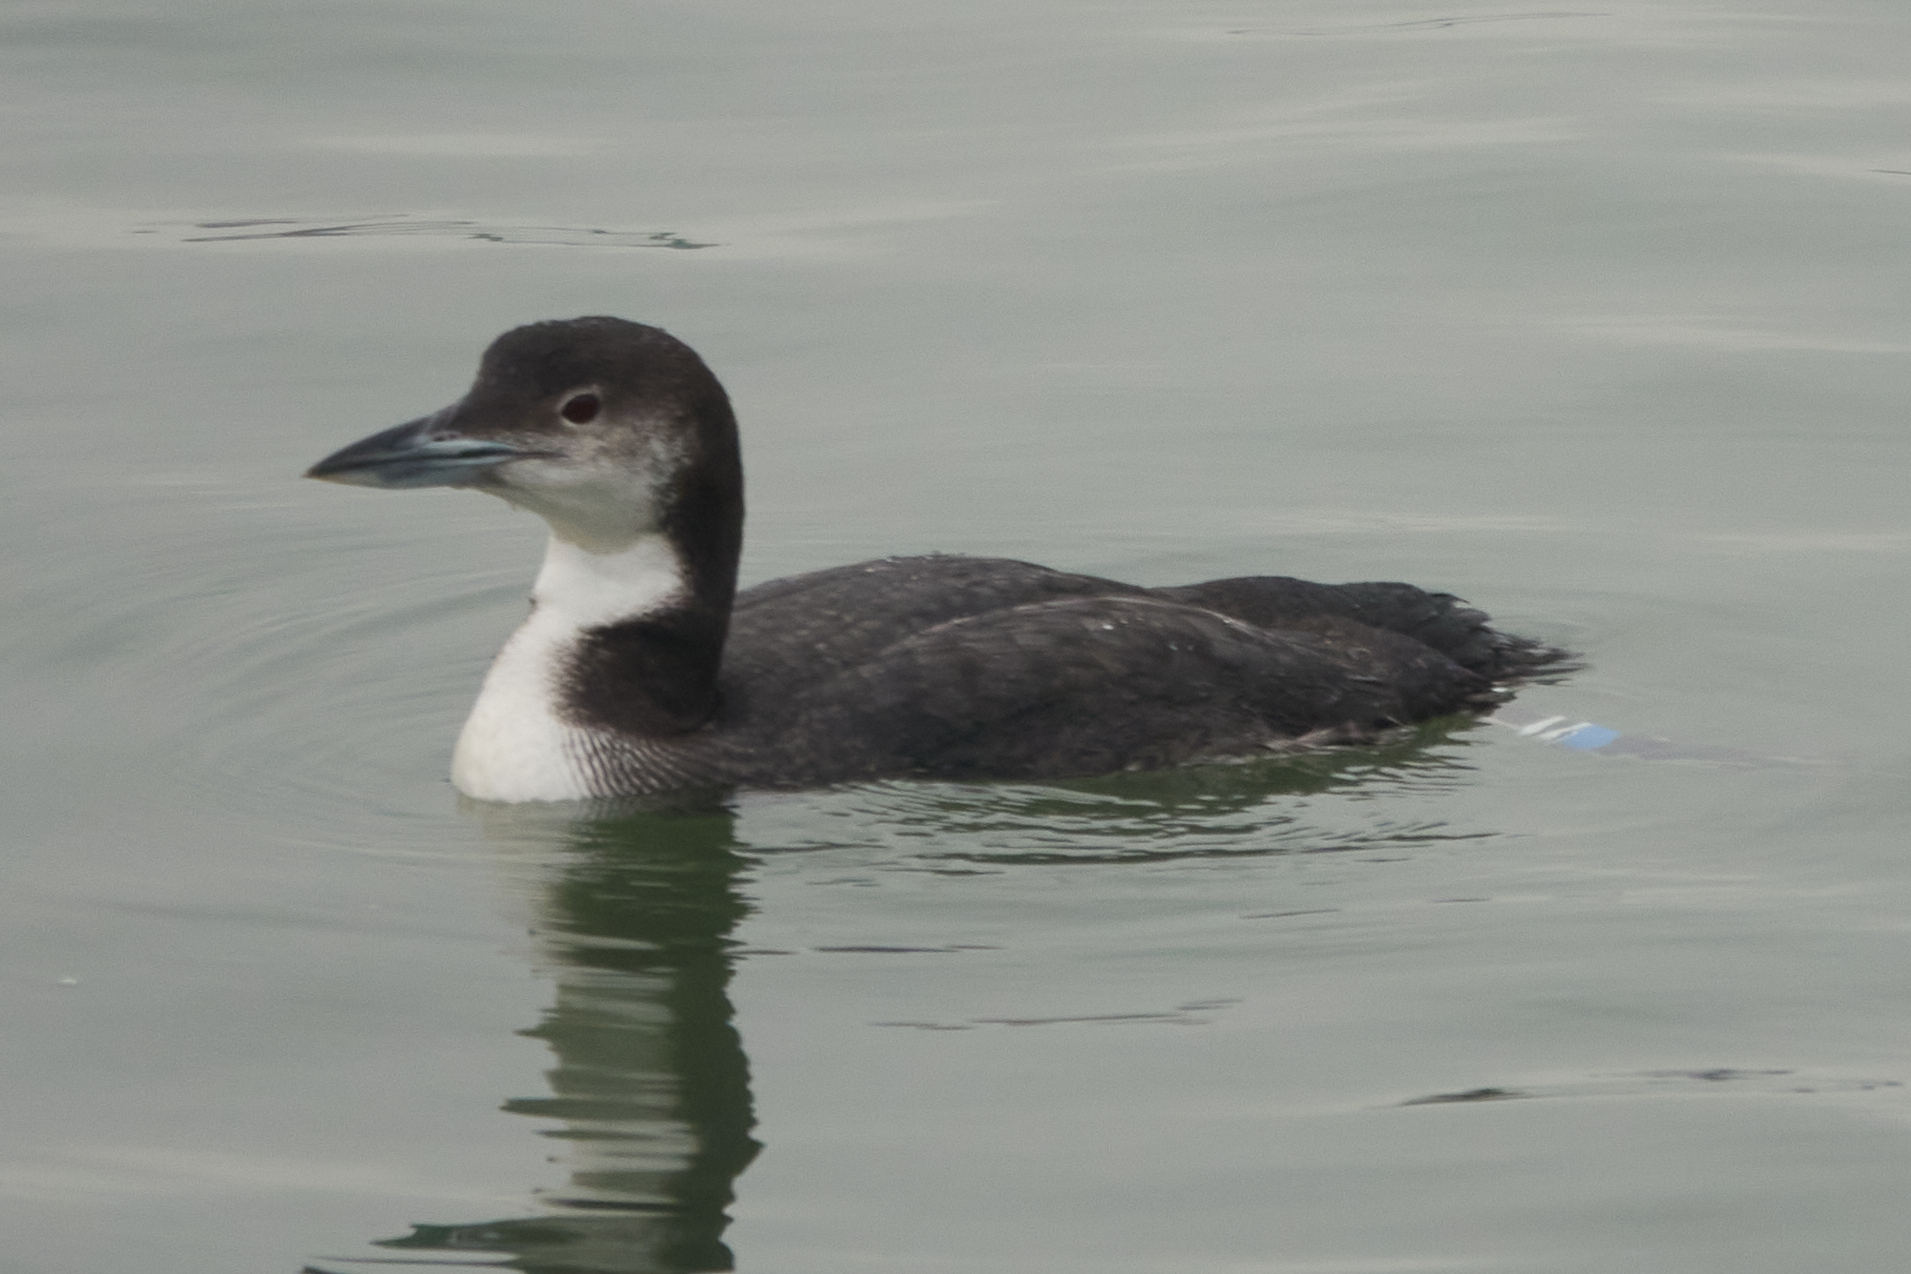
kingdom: Animalia
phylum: Chordata
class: Aves
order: Gaviiformes
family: Gaviidae
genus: Gavia
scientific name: Gavia immer
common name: Common loon
